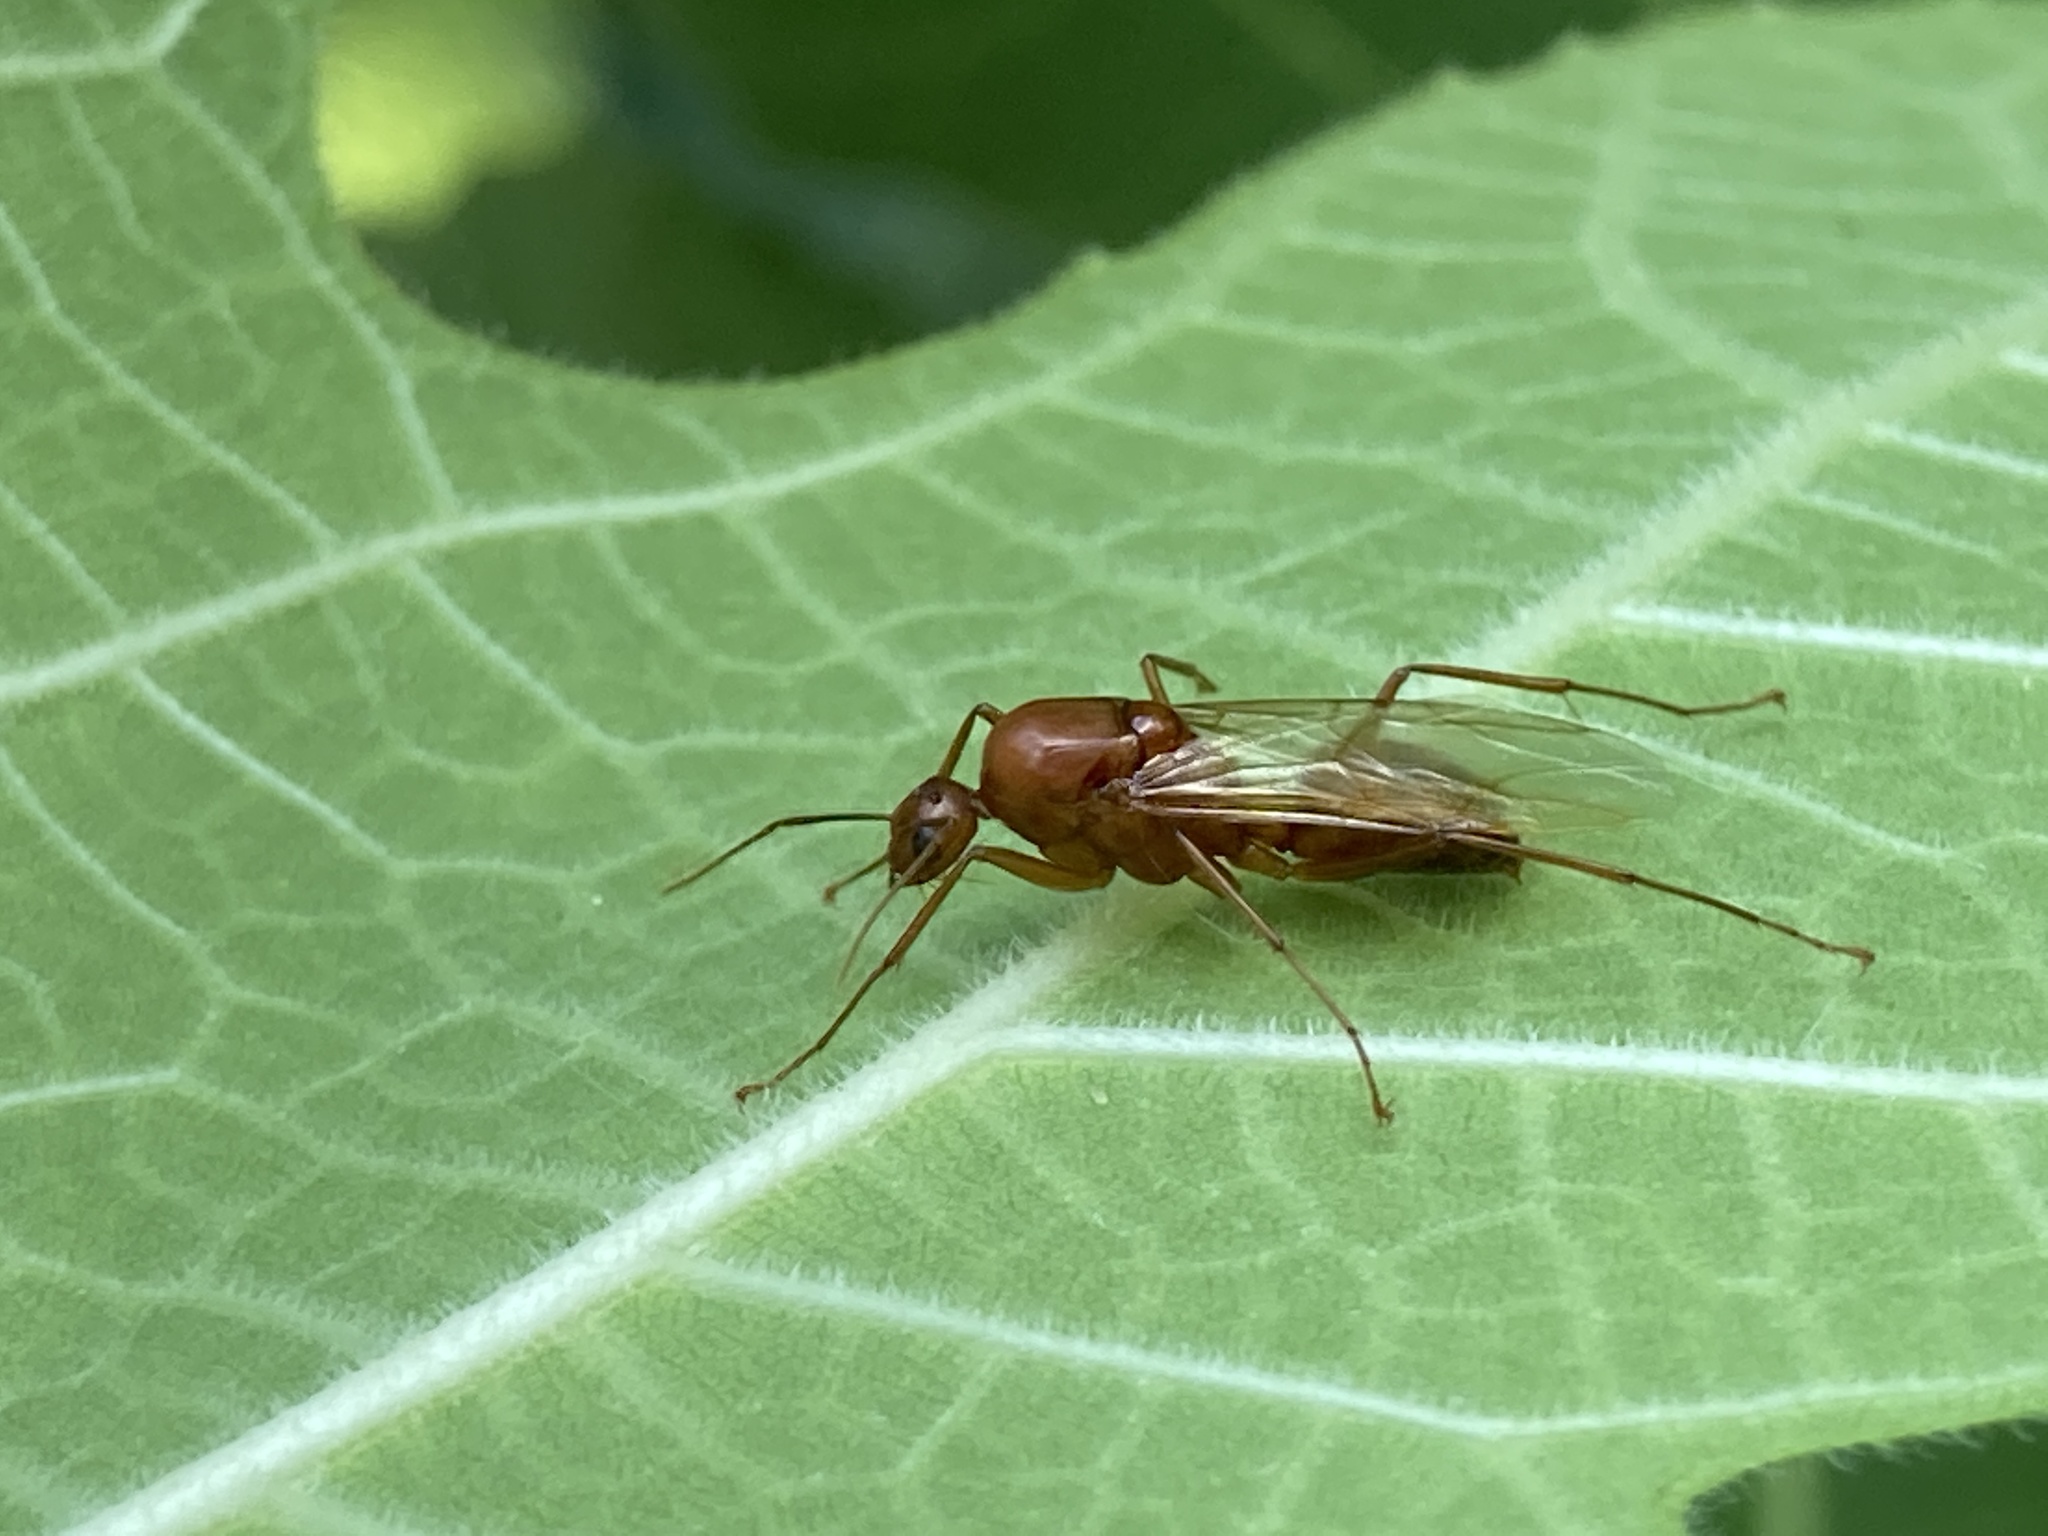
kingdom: Animalia
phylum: Arthropoda
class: Insecta
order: Hymenoptera
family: Formicidae
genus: Camponotus
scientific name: Camponotus castaneus
